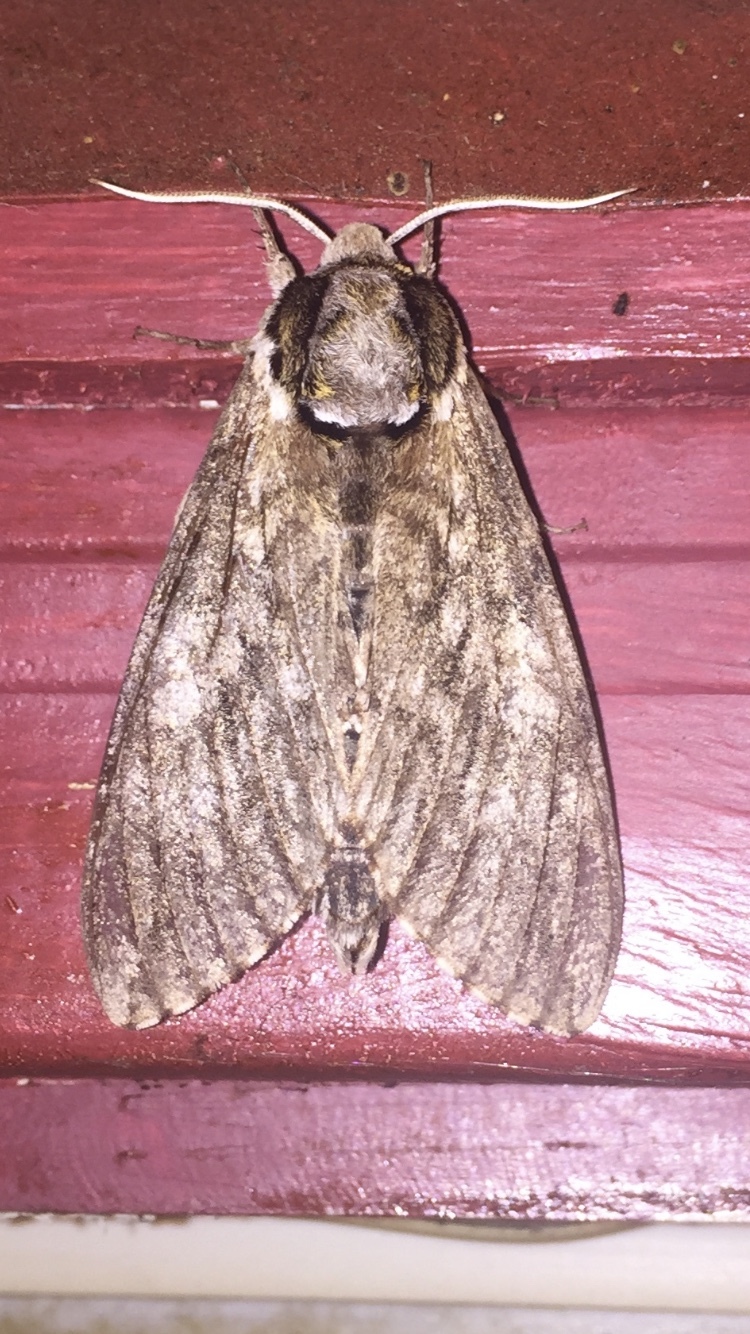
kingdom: Animalia
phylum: Arthropoda
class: Insecta
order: Lepidoptera
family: Sphingidae
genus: Ceratomia
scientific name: Ceratomia undulosa
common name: Waved sphinx
